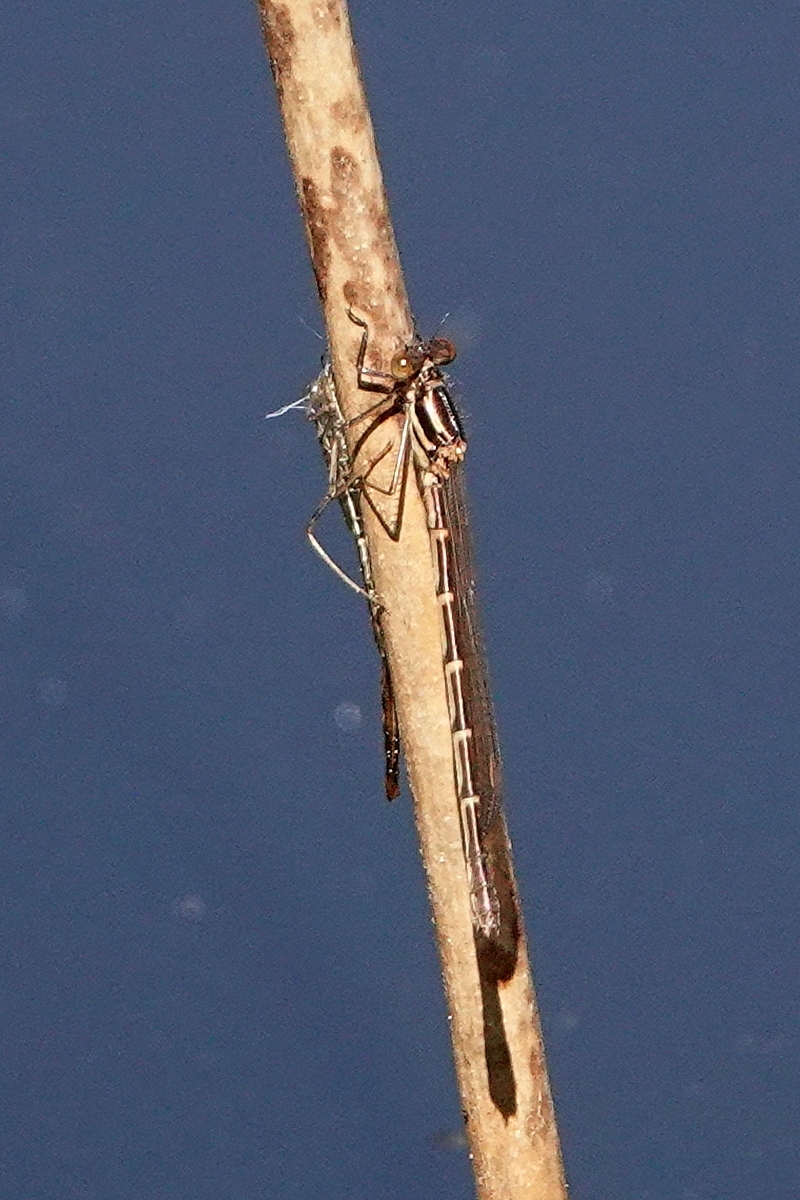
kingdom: Animalia
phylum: Arthropoda
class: Insecta
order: Odonata
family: Lestidae
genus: Austrolestes
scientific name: Austrolestes leda
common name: Wandering ringtail
